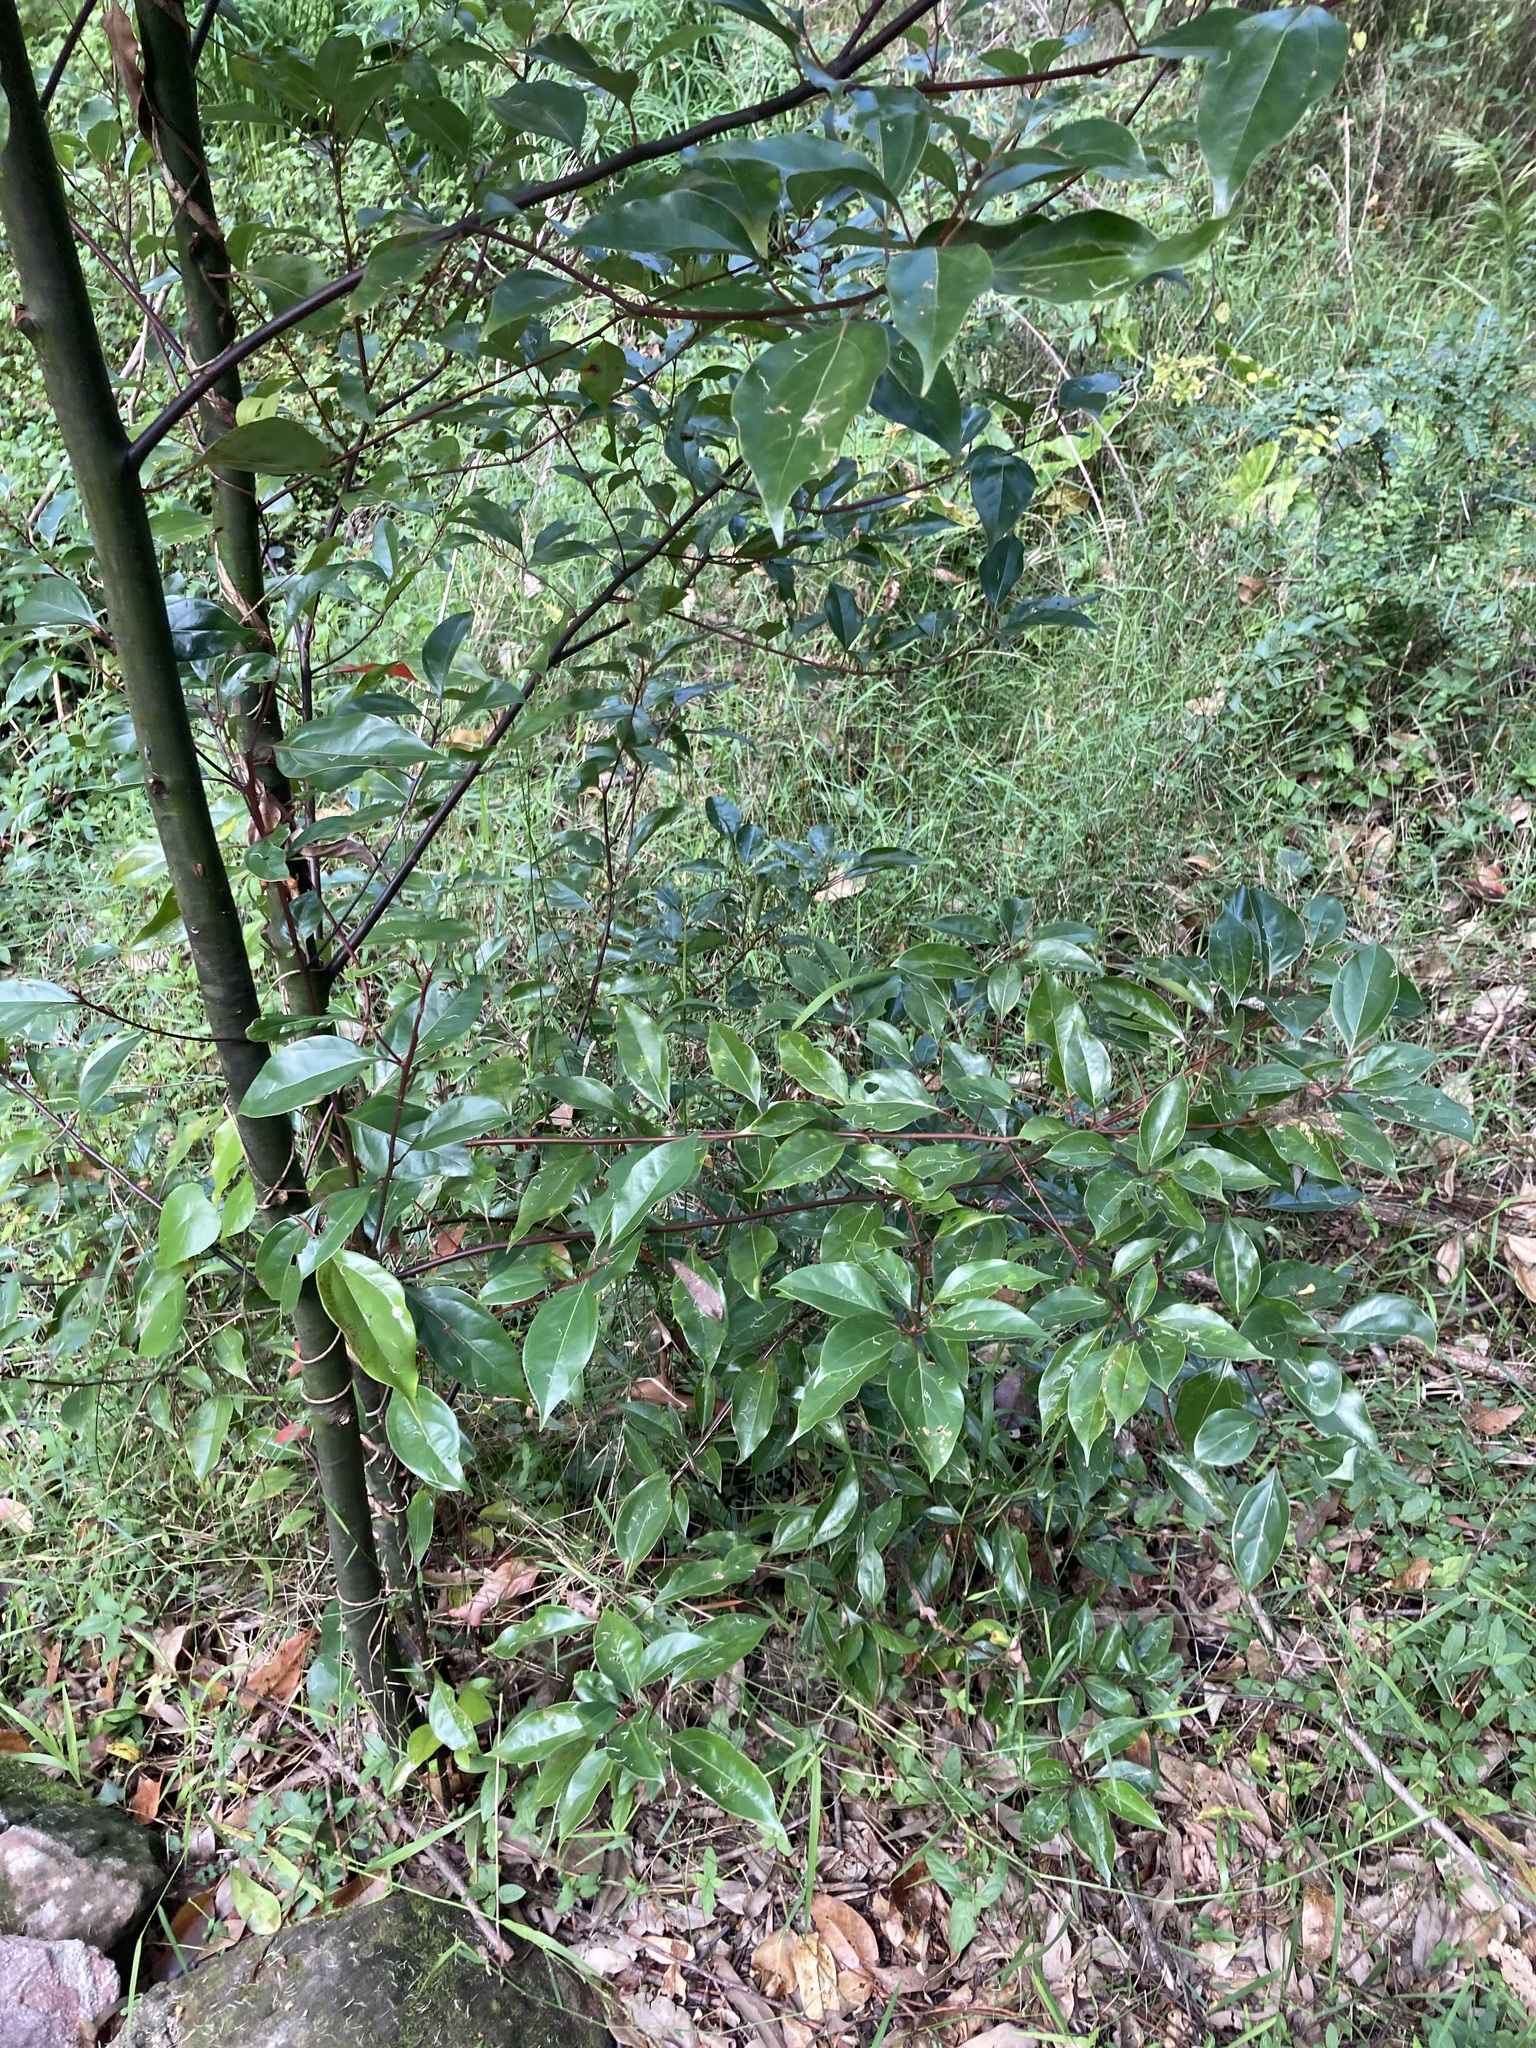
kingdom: Plantae
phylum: Tracheophyta
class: Magnoliopsida
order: Laurales
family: Lauraceae
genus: Cinnamomum
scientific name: Cinnamomum camphora
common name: Camphortree
